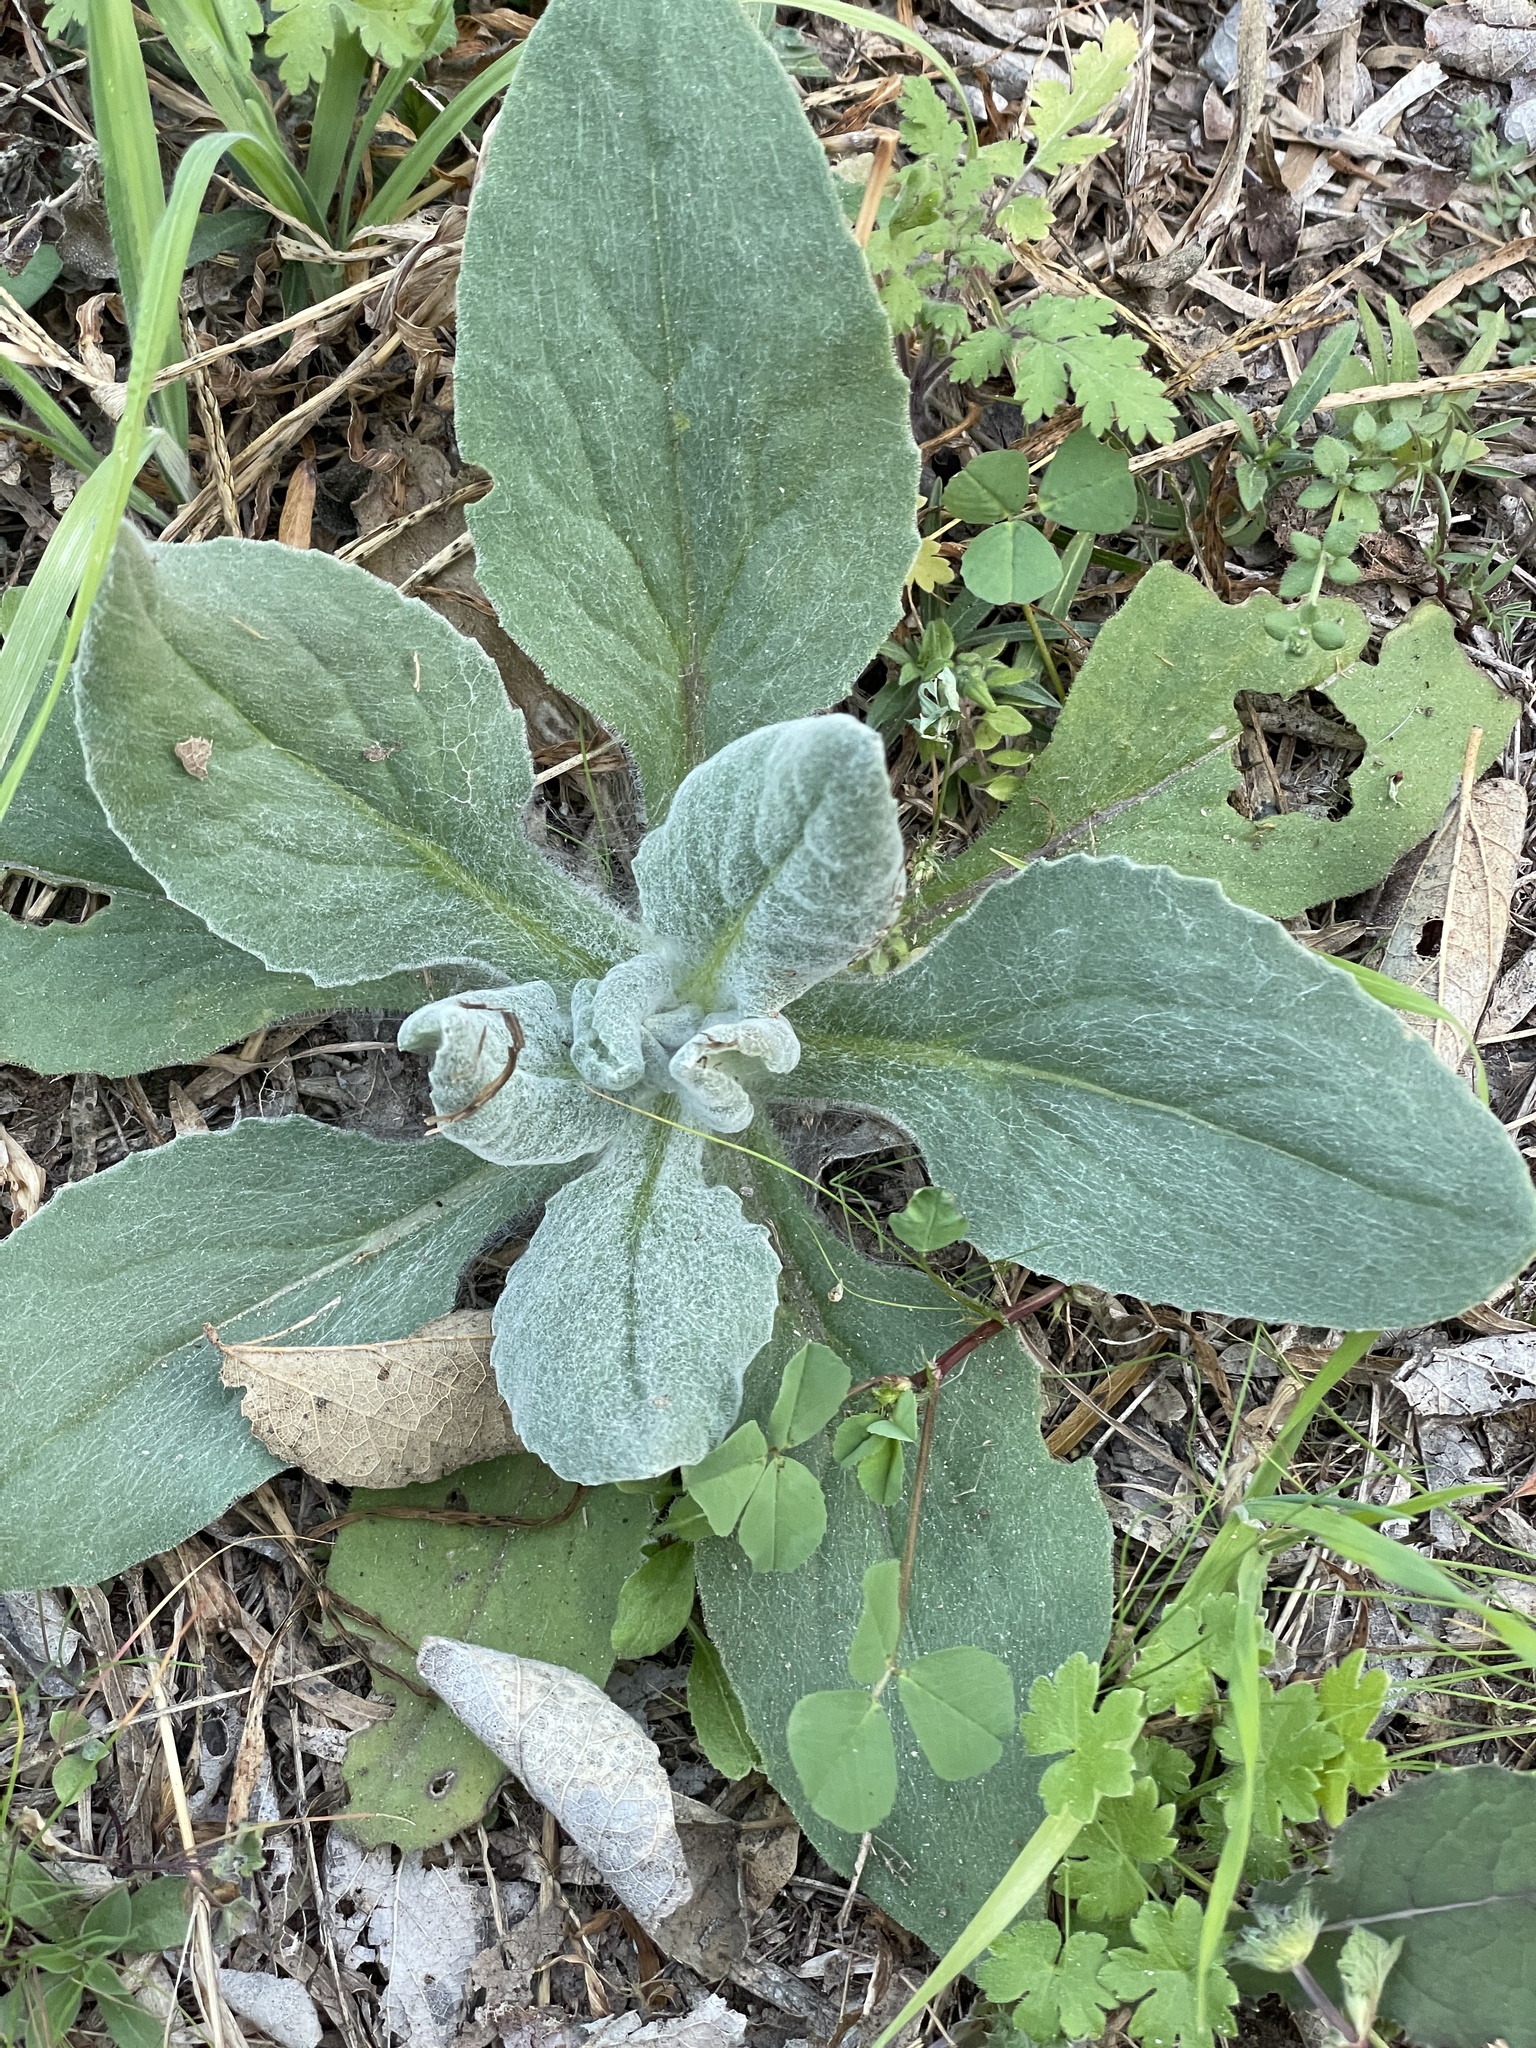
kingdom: Plantae
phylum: Tracheophyta
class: Magnoliopsida
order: Asterales
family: Asteraceae
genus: Senecio
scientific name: Senecio ampullaceus
